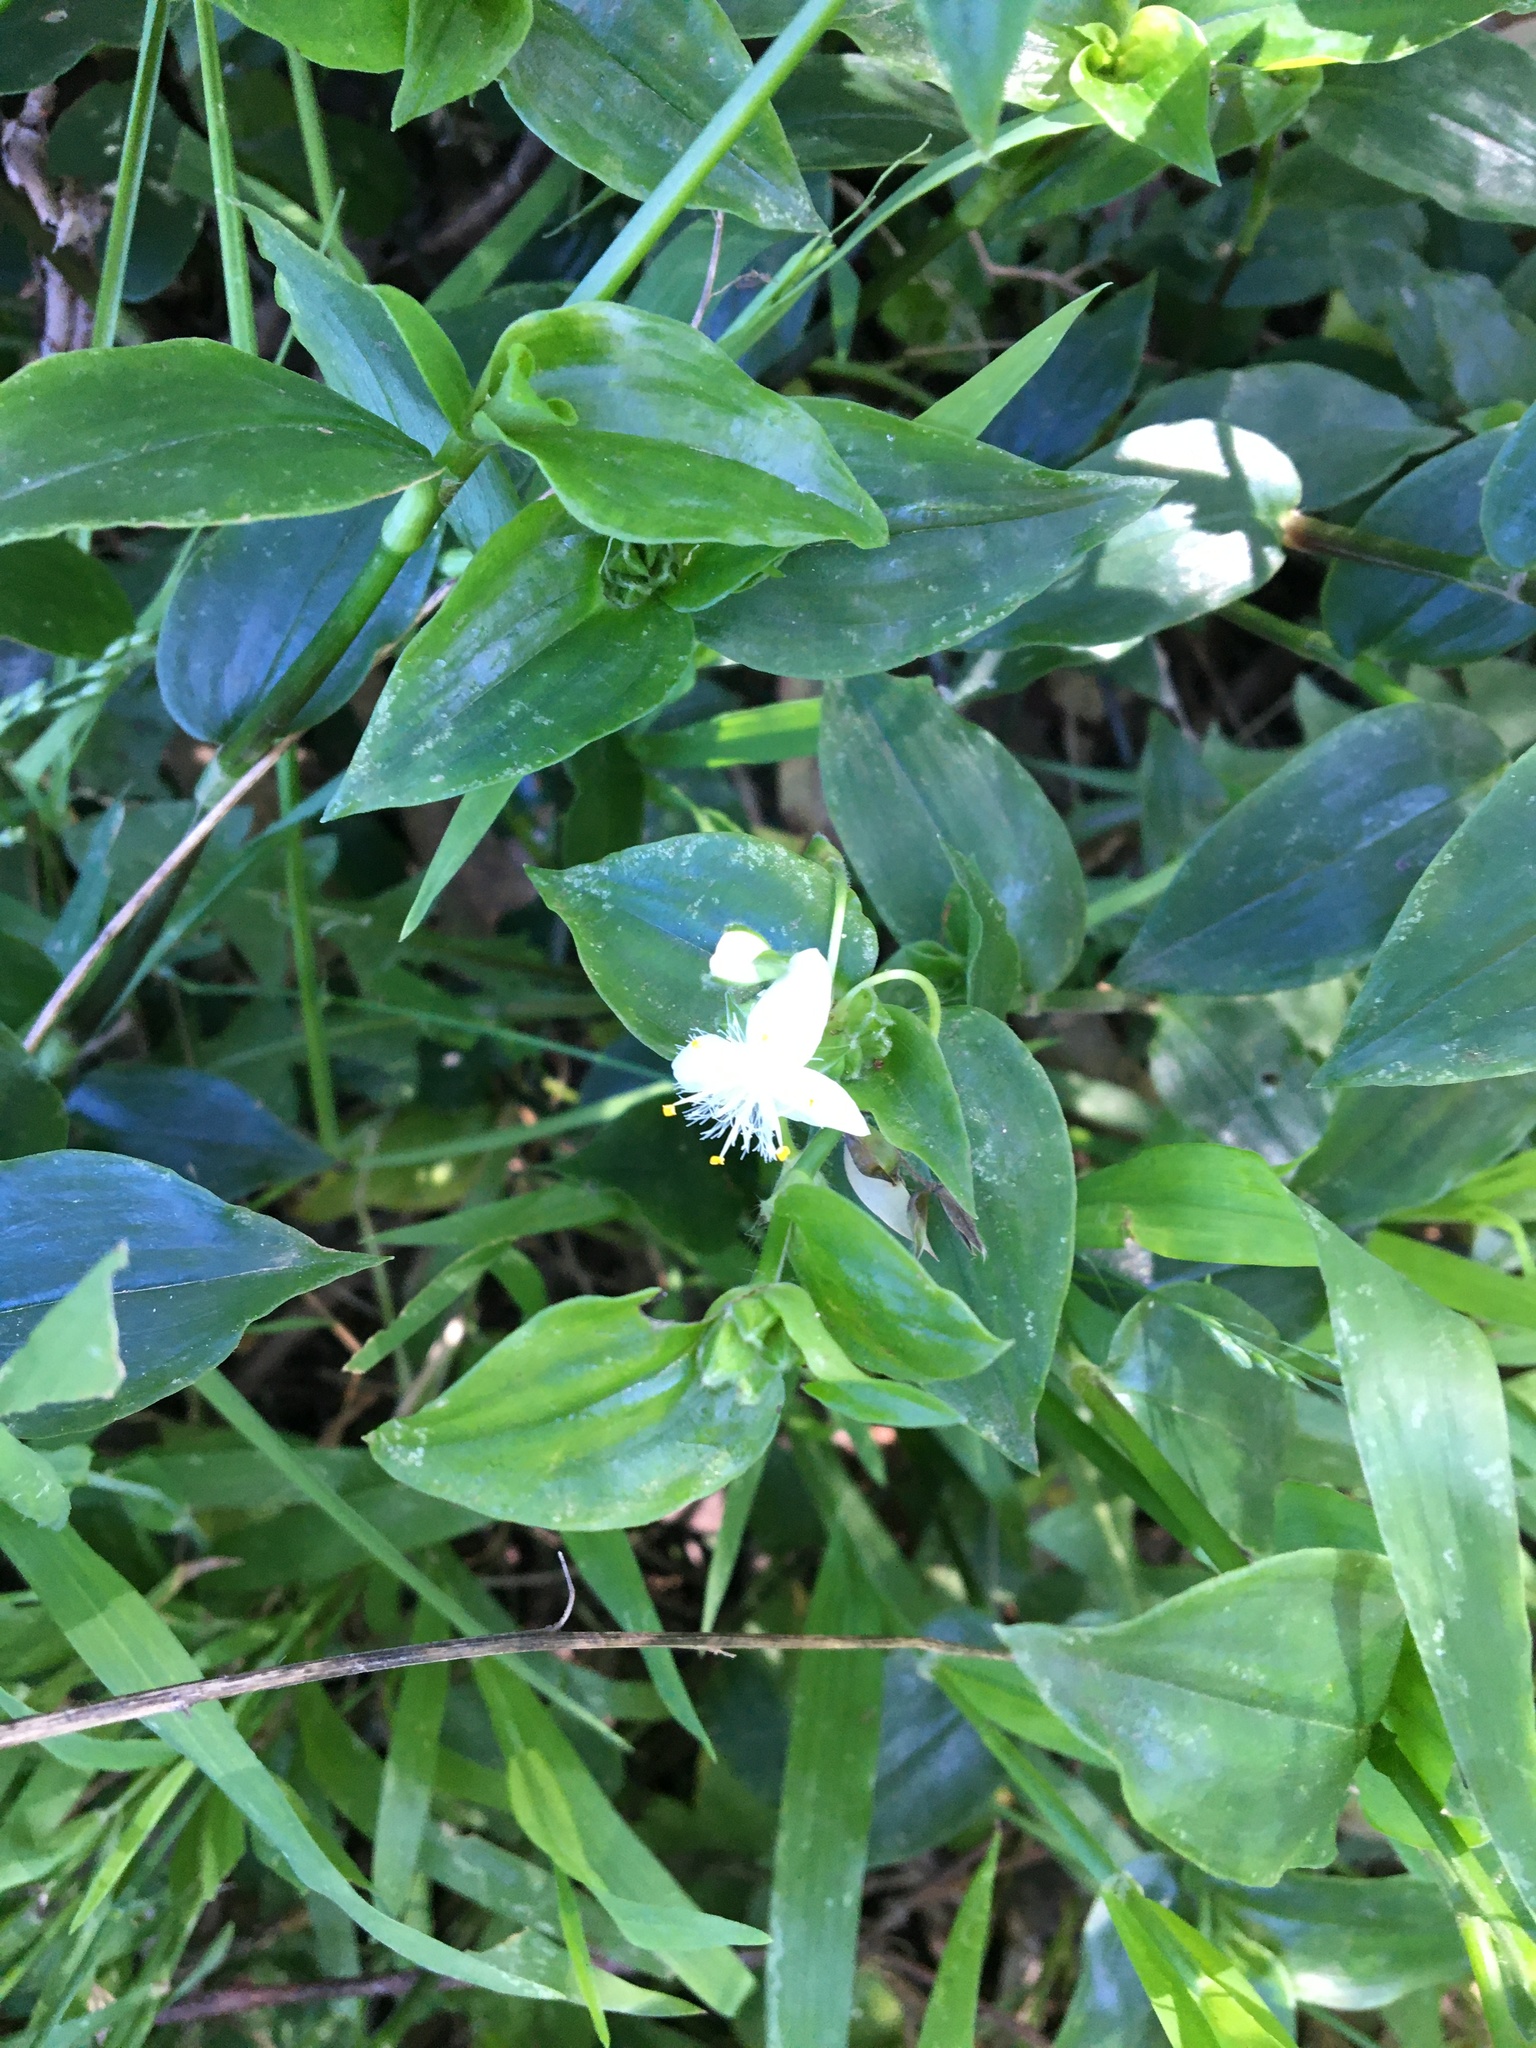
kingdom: Plantae
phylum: Tracheophyta
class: Liliopsida
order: Commelinales
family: Commelinaceae
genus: Tradescantia
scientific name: Tradescantia fluminensis
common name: Wandering-jew
